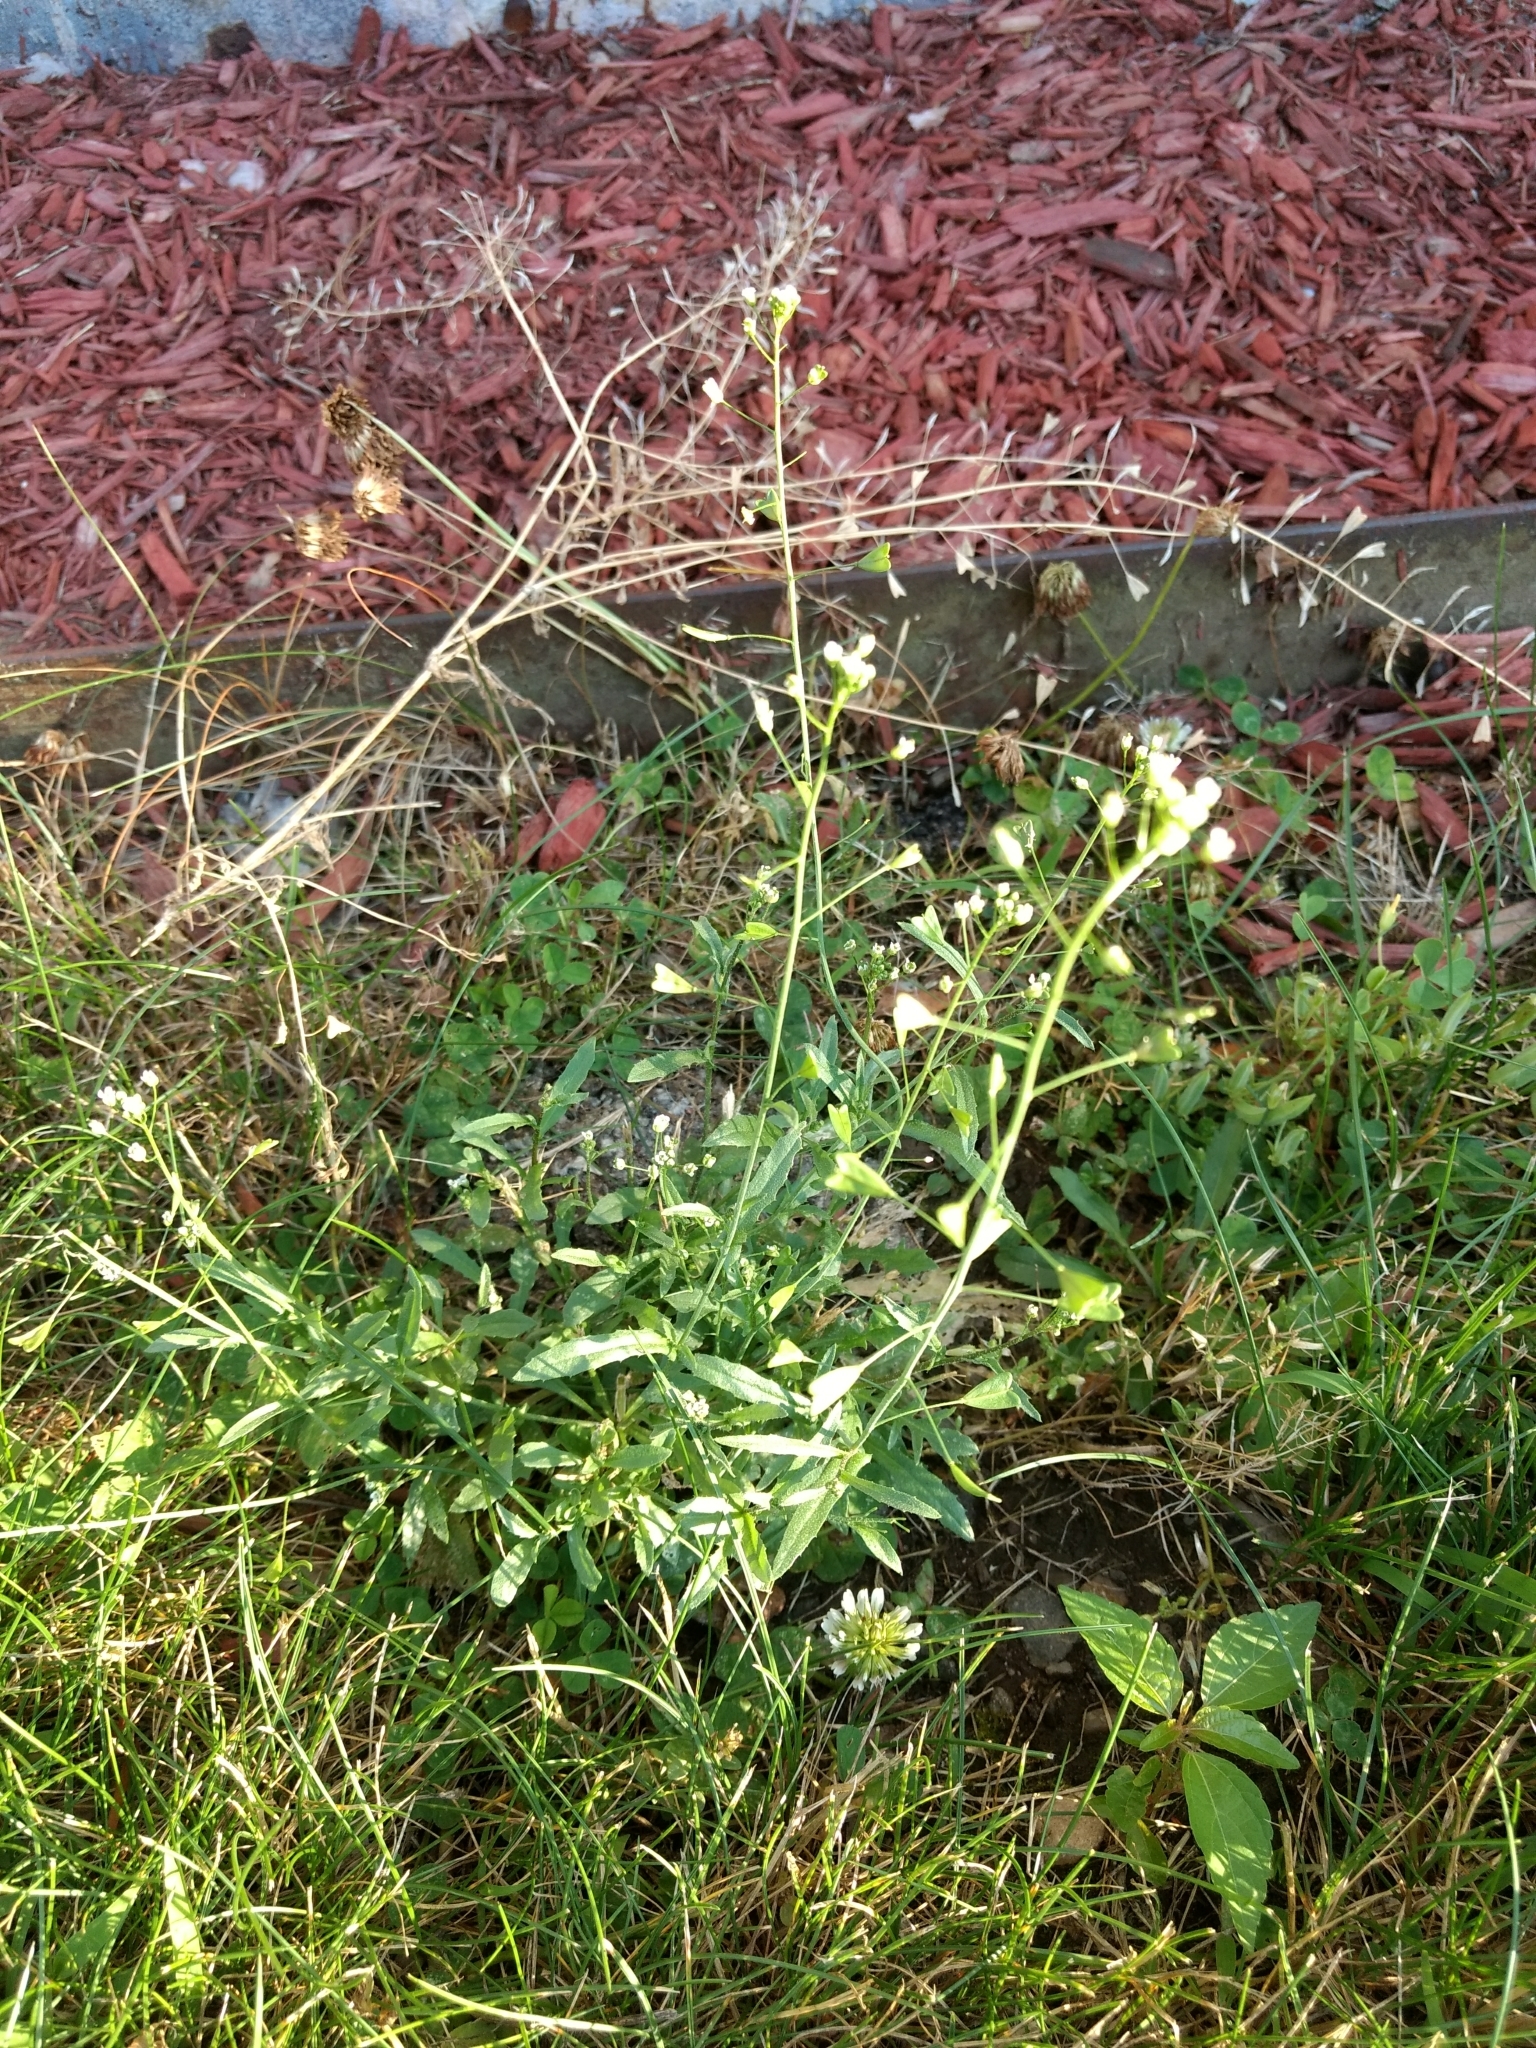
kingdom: Plantae
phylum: Tracheophyta
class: Magnoliopsida
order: Brassicales
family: Brassicaceae
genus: Capsella
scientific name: Capsella bursa-pastoris
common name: Shepherd's purse
